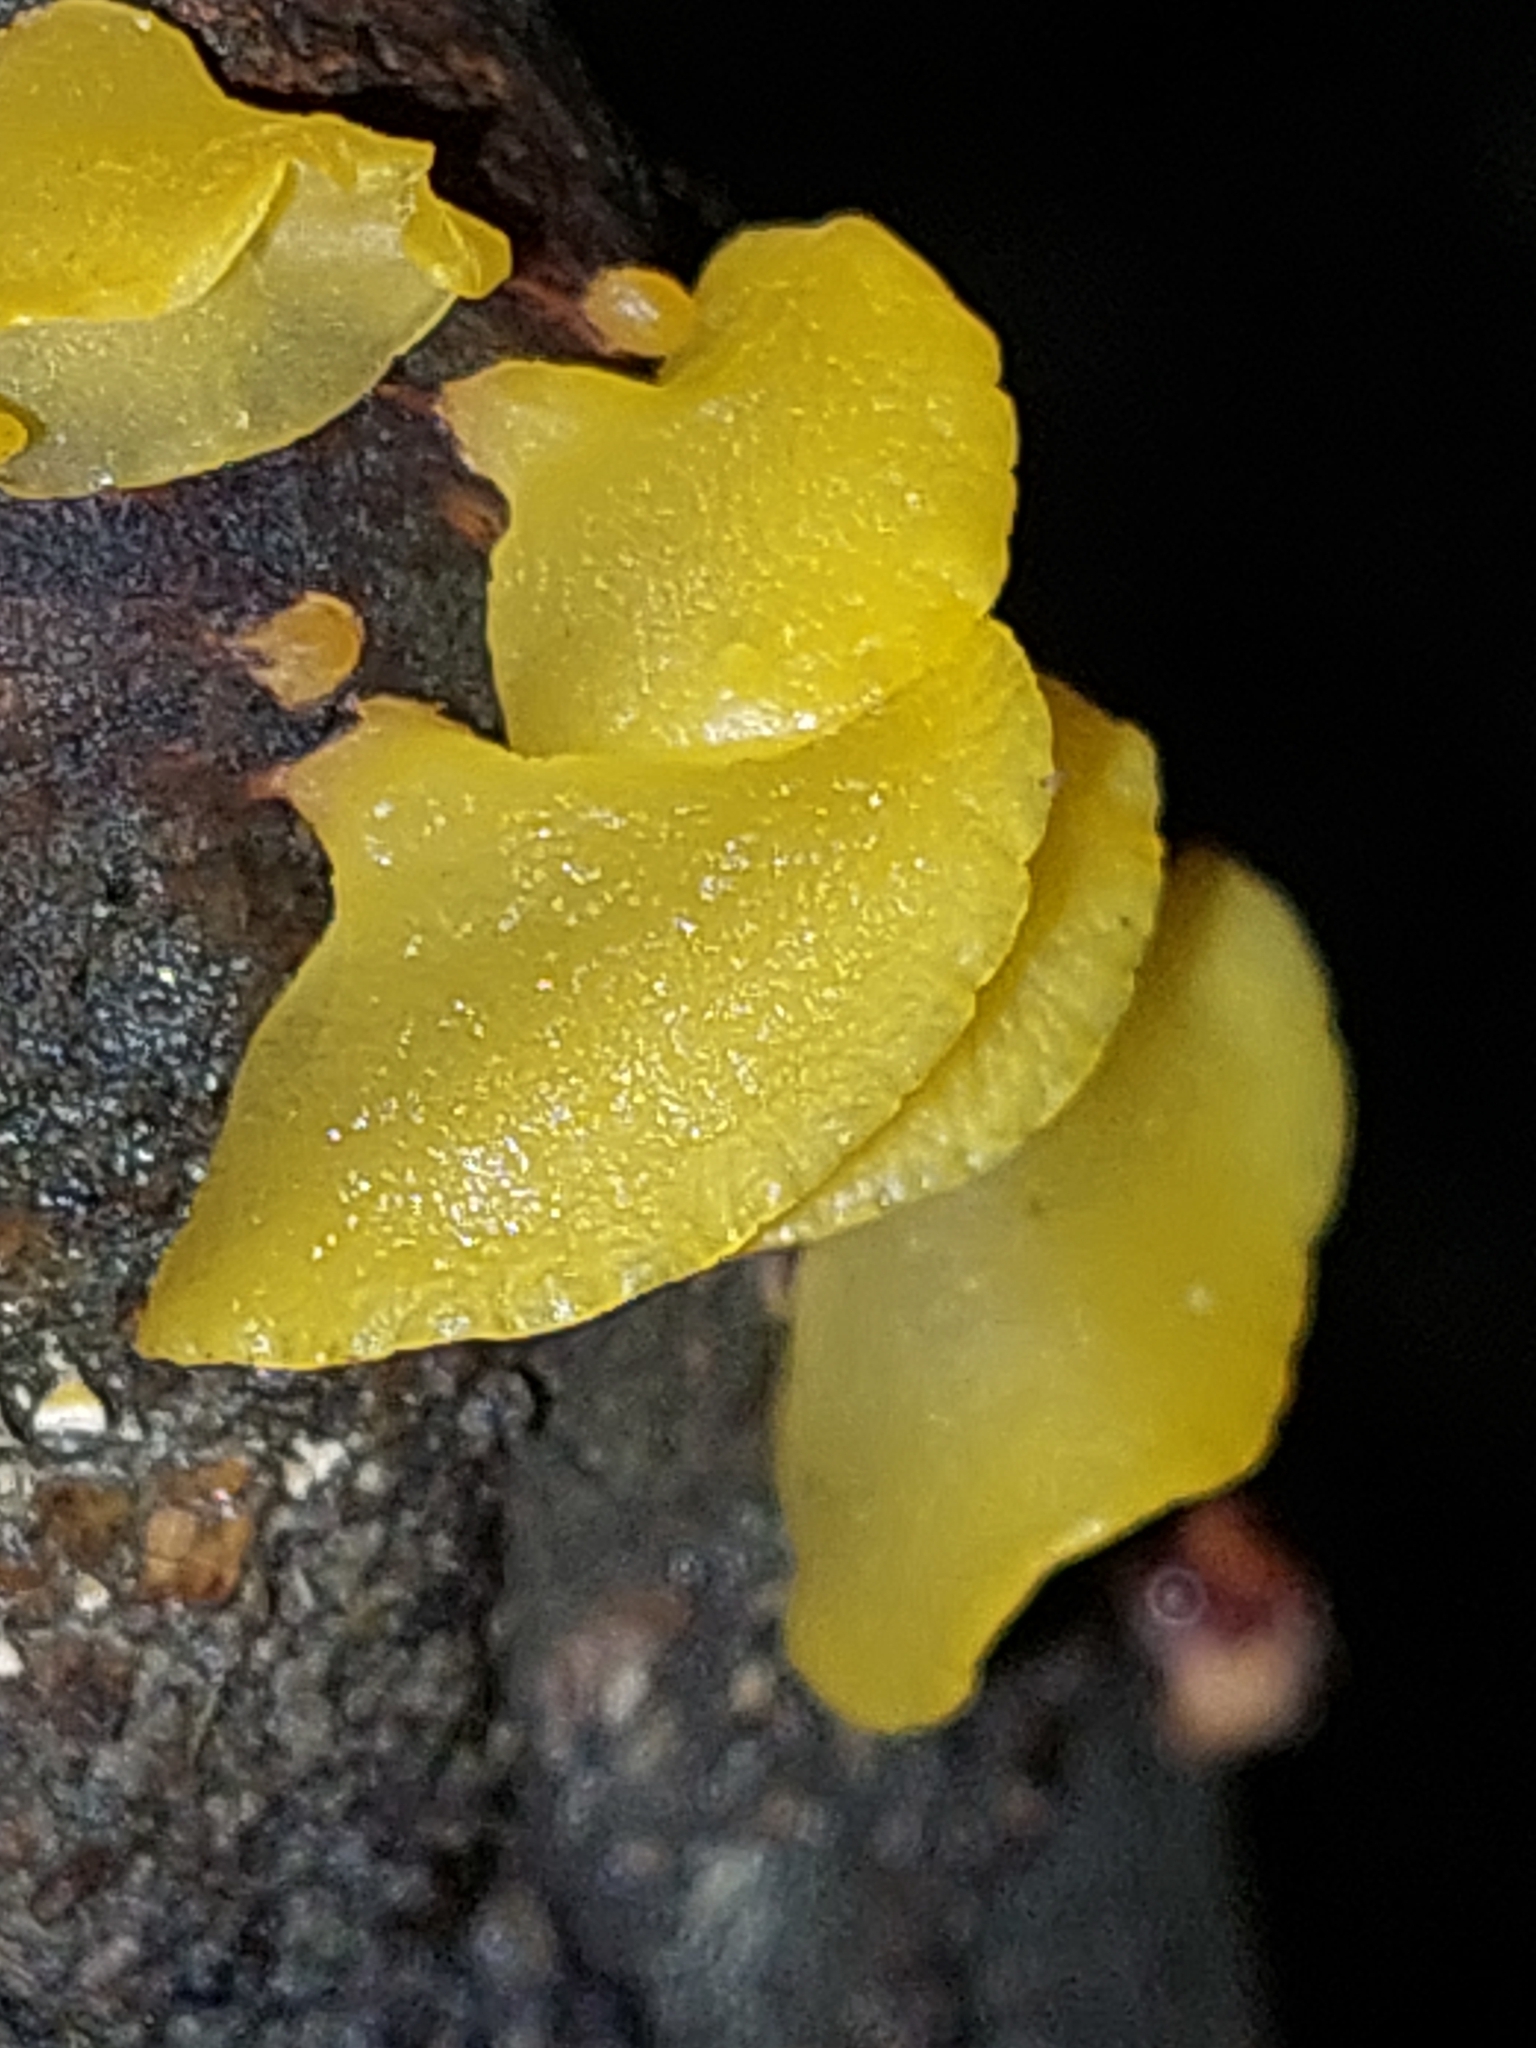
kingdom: Fungi
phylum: Basidiomycota
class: Dacrymycetes
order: Dacrymycetales
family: Dacrymycetaceae
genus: Heterotextus
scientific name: Heterotextus miltinus
